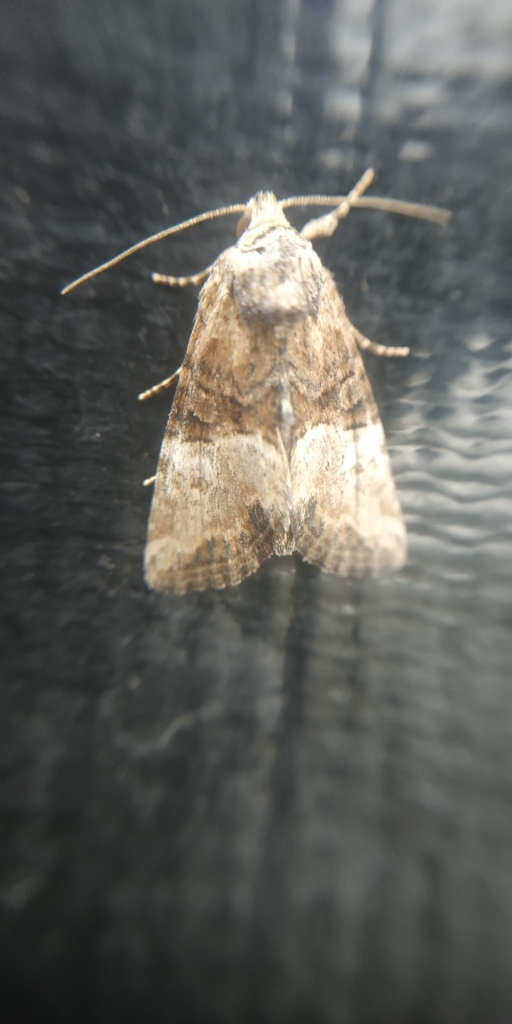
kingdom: Animalia
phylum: Arthropoda
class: Insecta
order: Lepidoptera
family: Noctuidae
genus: Mesoligia
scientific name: Mesoligia furuncula
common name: Cloaked minor
